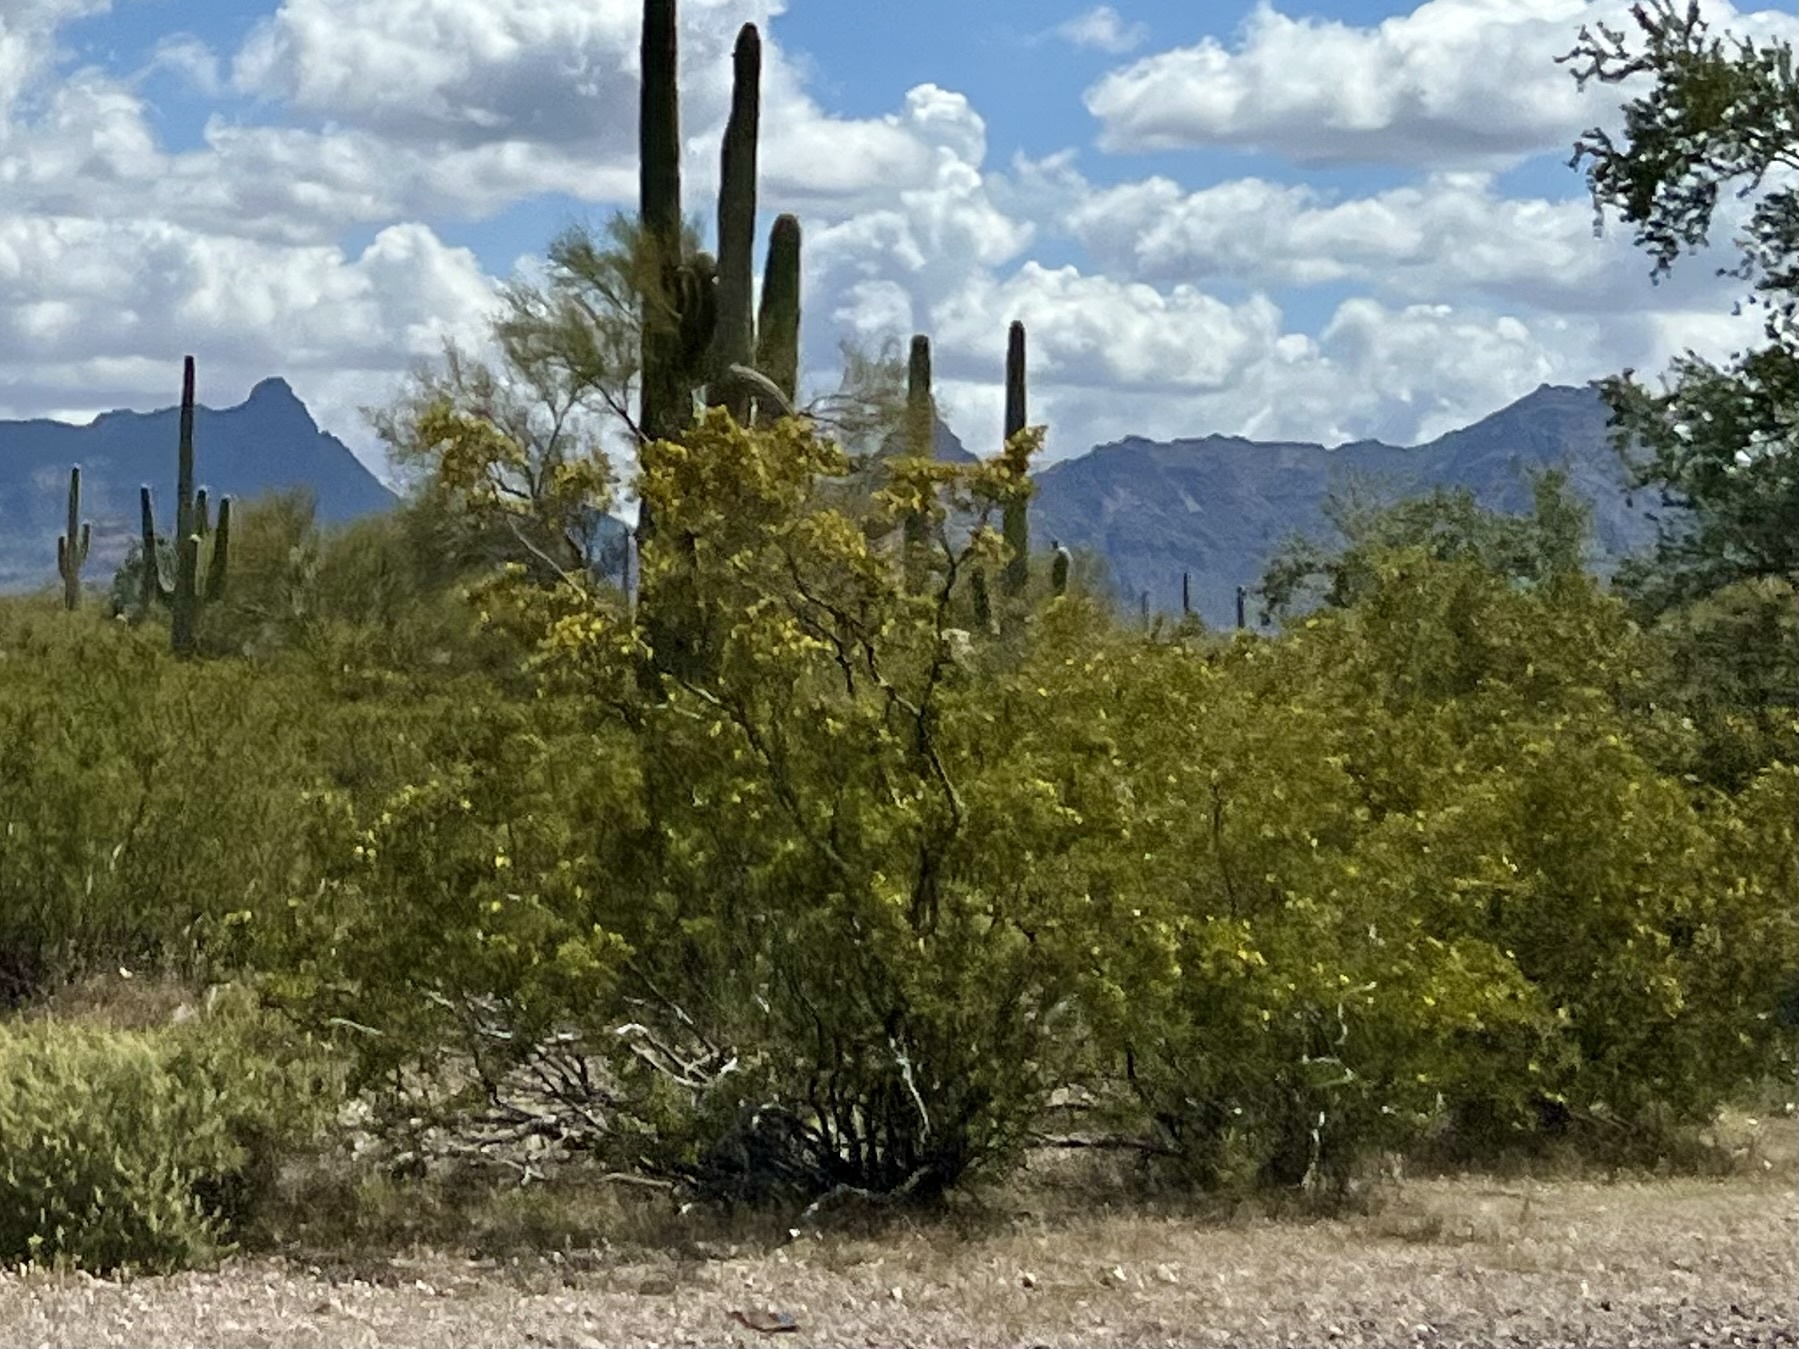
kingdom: Plantae
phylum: Tracheophyta
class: Magnoliopsida
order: Zygophyllales
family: Zygophyllaceae
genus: Larrea
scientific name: Larrea tridentata
